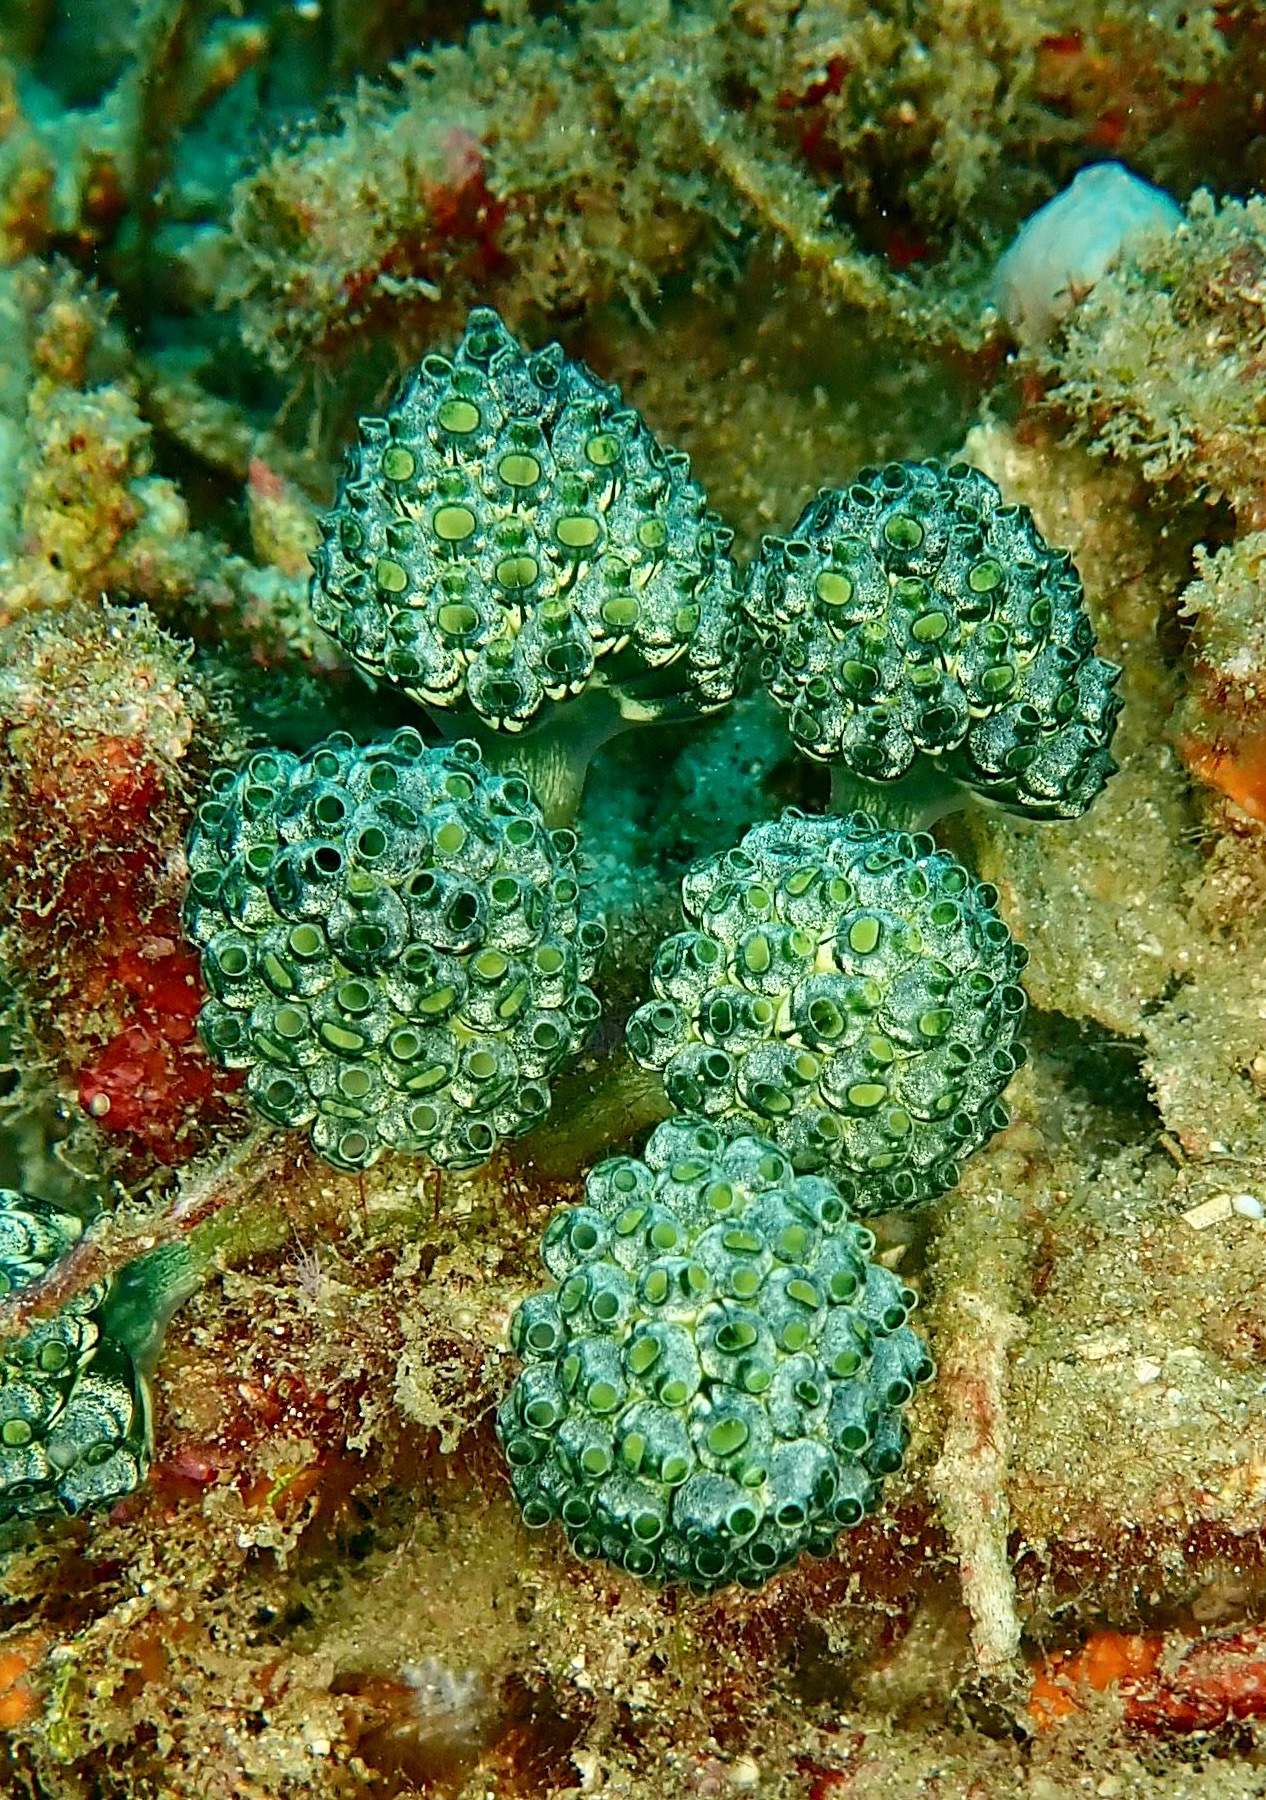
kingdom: Animalia
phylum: Chordata
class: Ascidiacea
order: Aplousobranchia
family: Clavelinidae
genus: Nephtheis
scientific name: Nephtheis fascicularis
